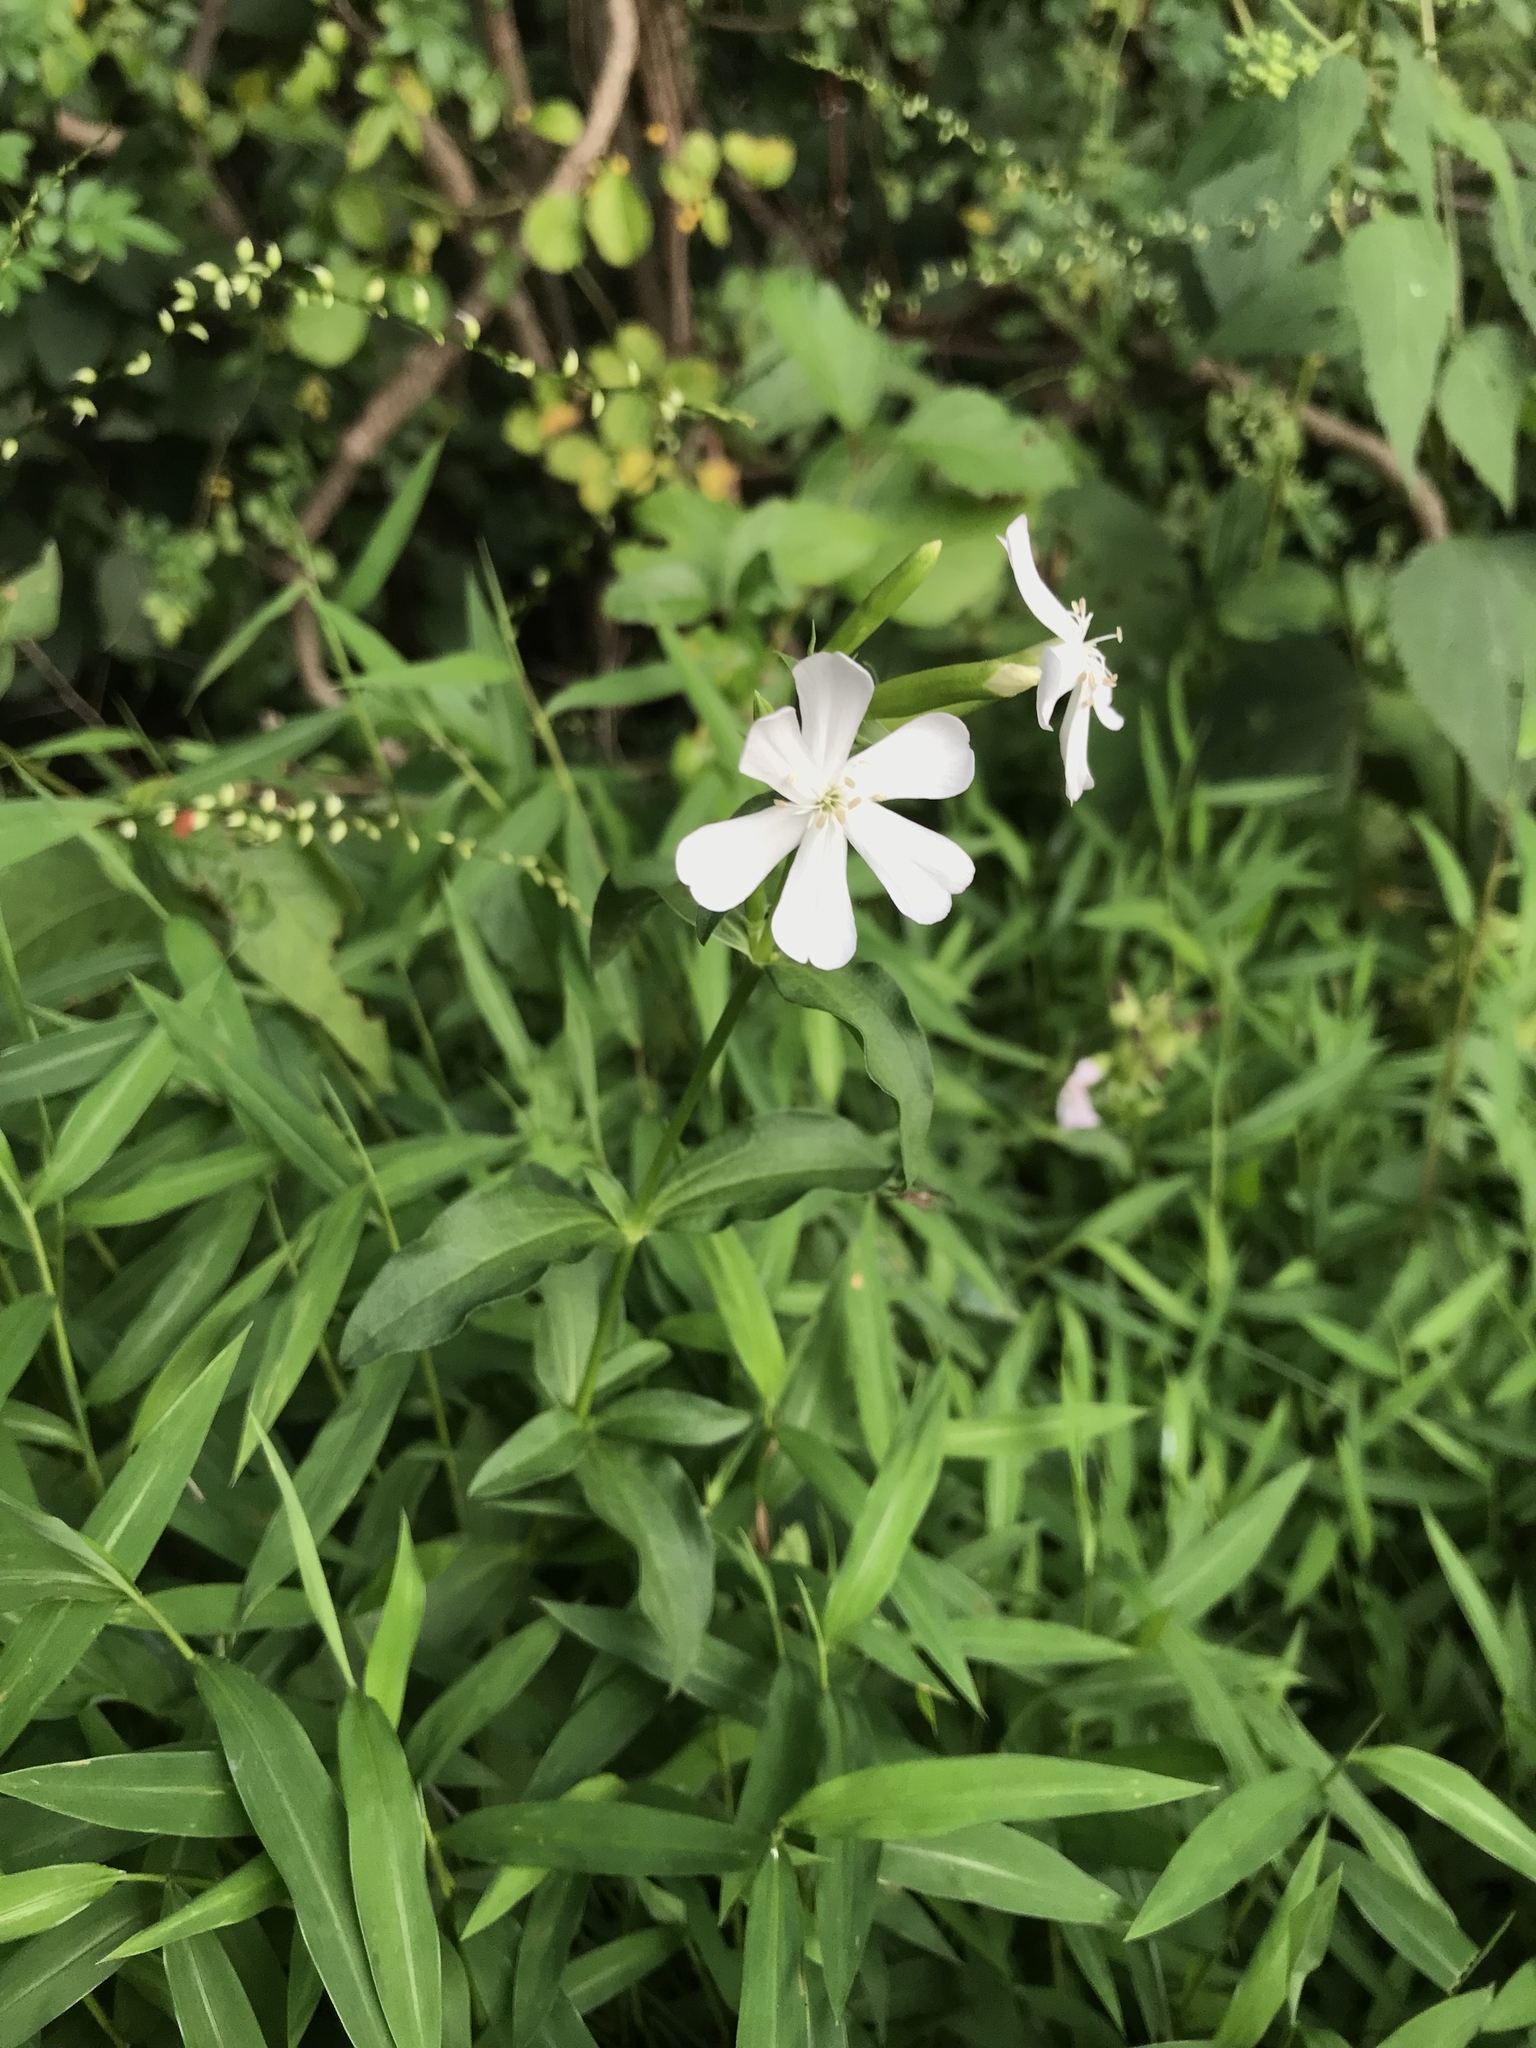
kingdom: Plantae
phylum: Tracheophyta
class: Magnoliopsida
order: Caryophyllales
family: Caryophyllaceae
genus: Saponaria
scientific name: Saponaria officinalis
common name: Soapwort
